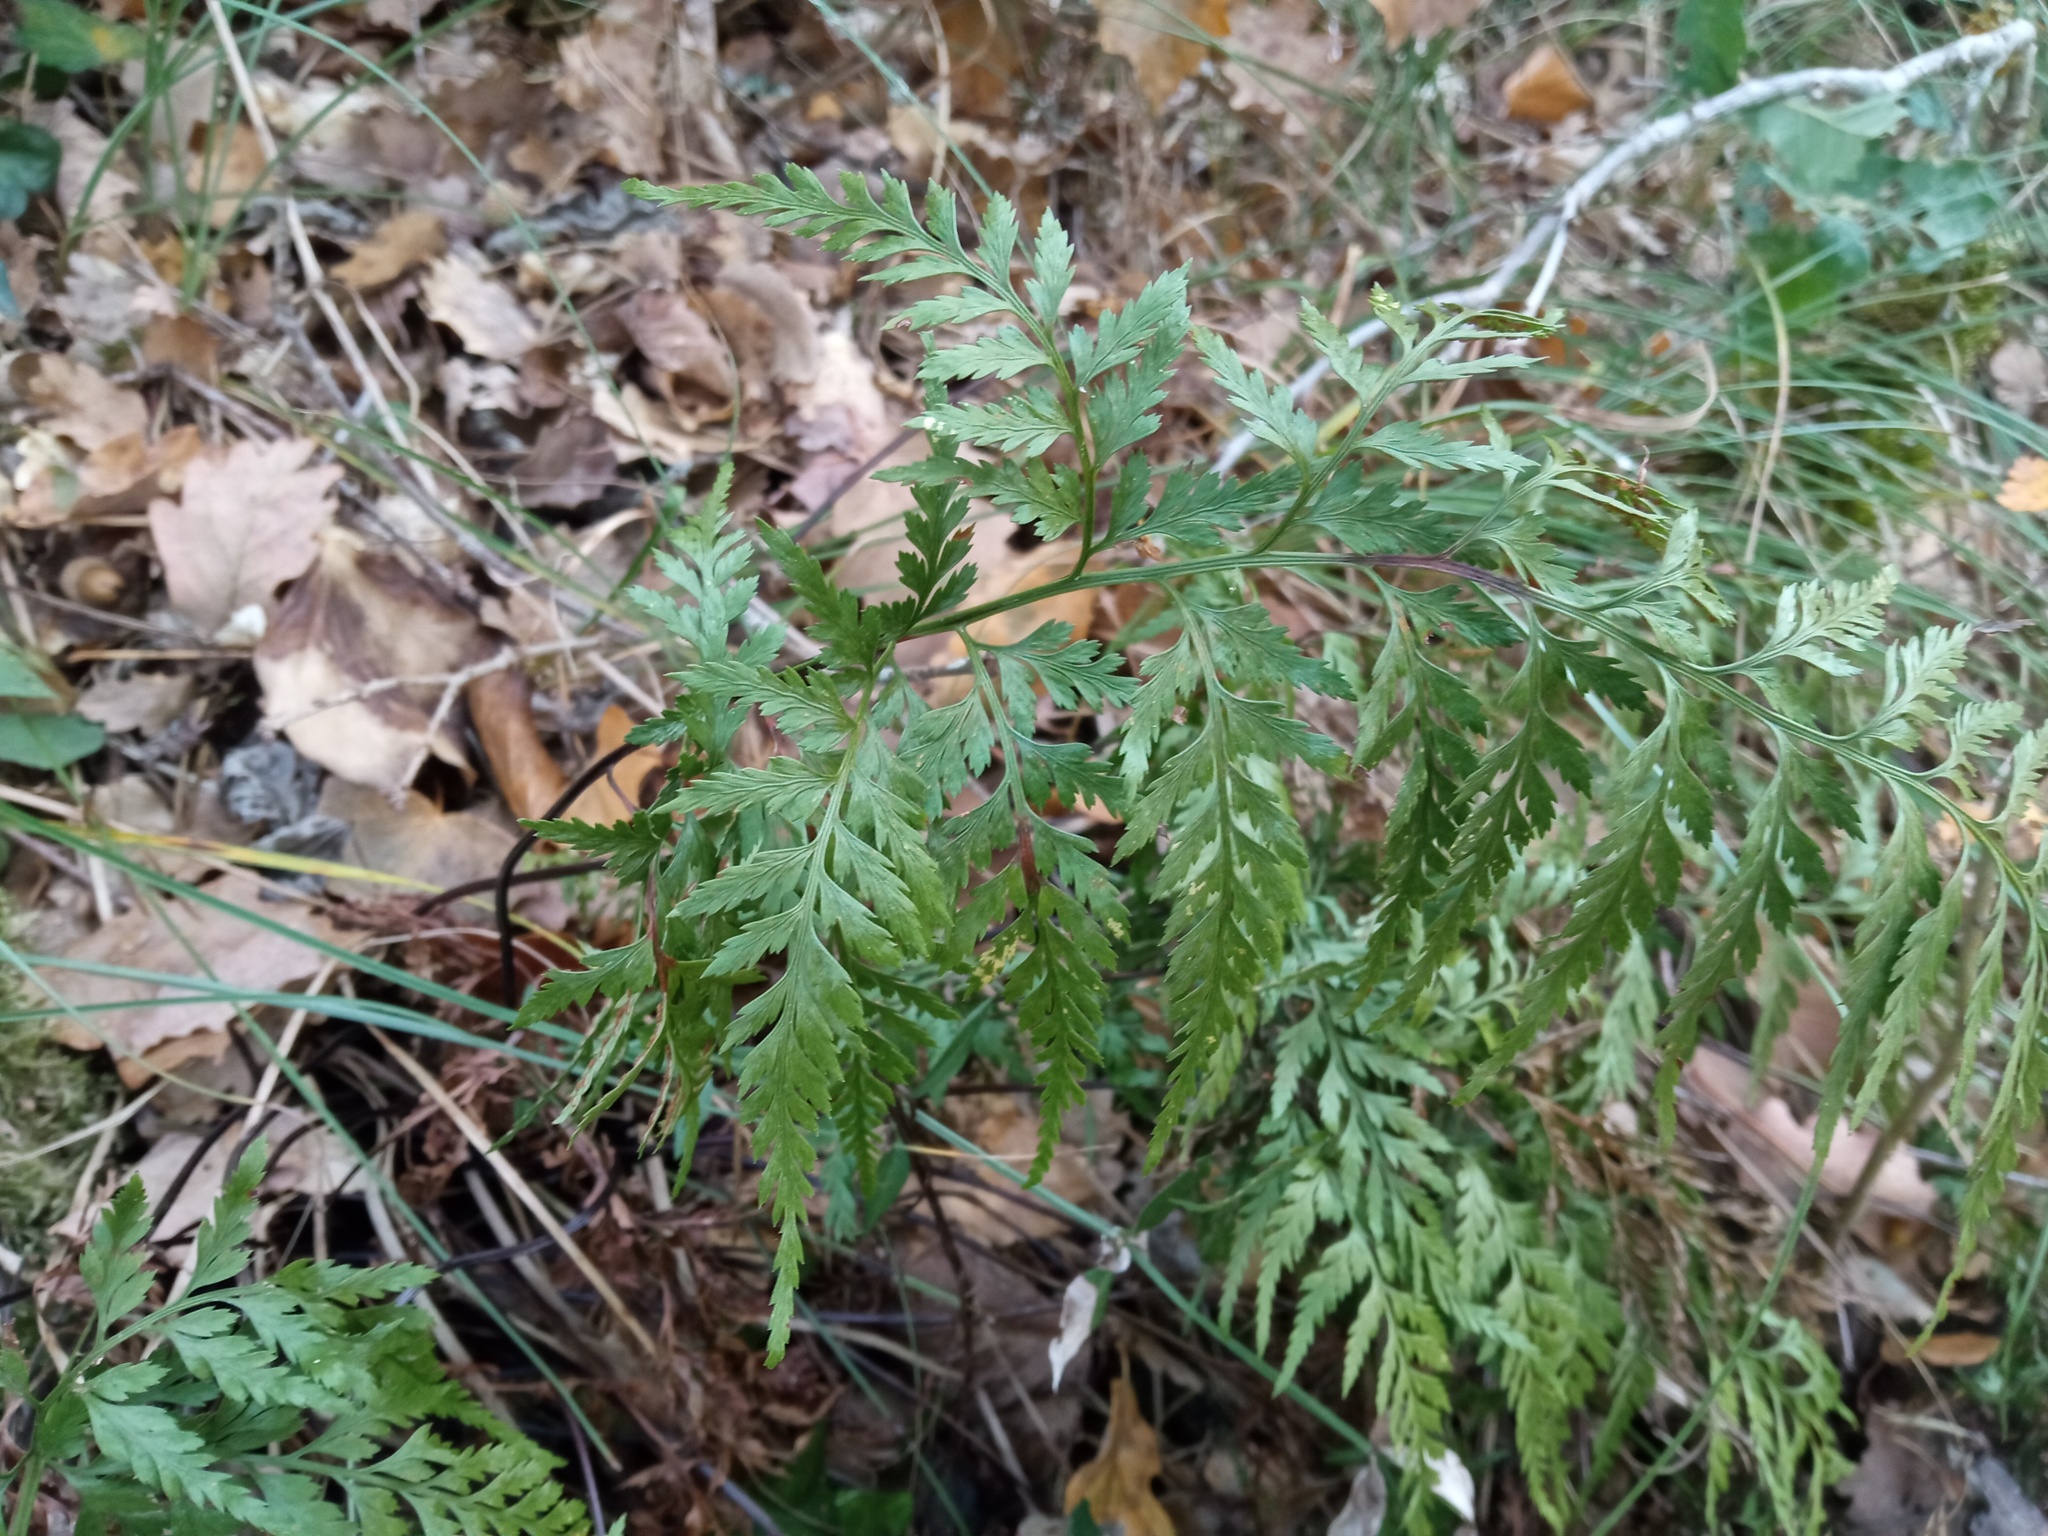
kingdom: Plantae
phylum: Tracheophyta
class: Polypodiopsida
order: Polypodiales
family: Aspleniaceae
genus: Asplenium
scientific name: Asplenium onopteris
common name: Irish spleenwort
